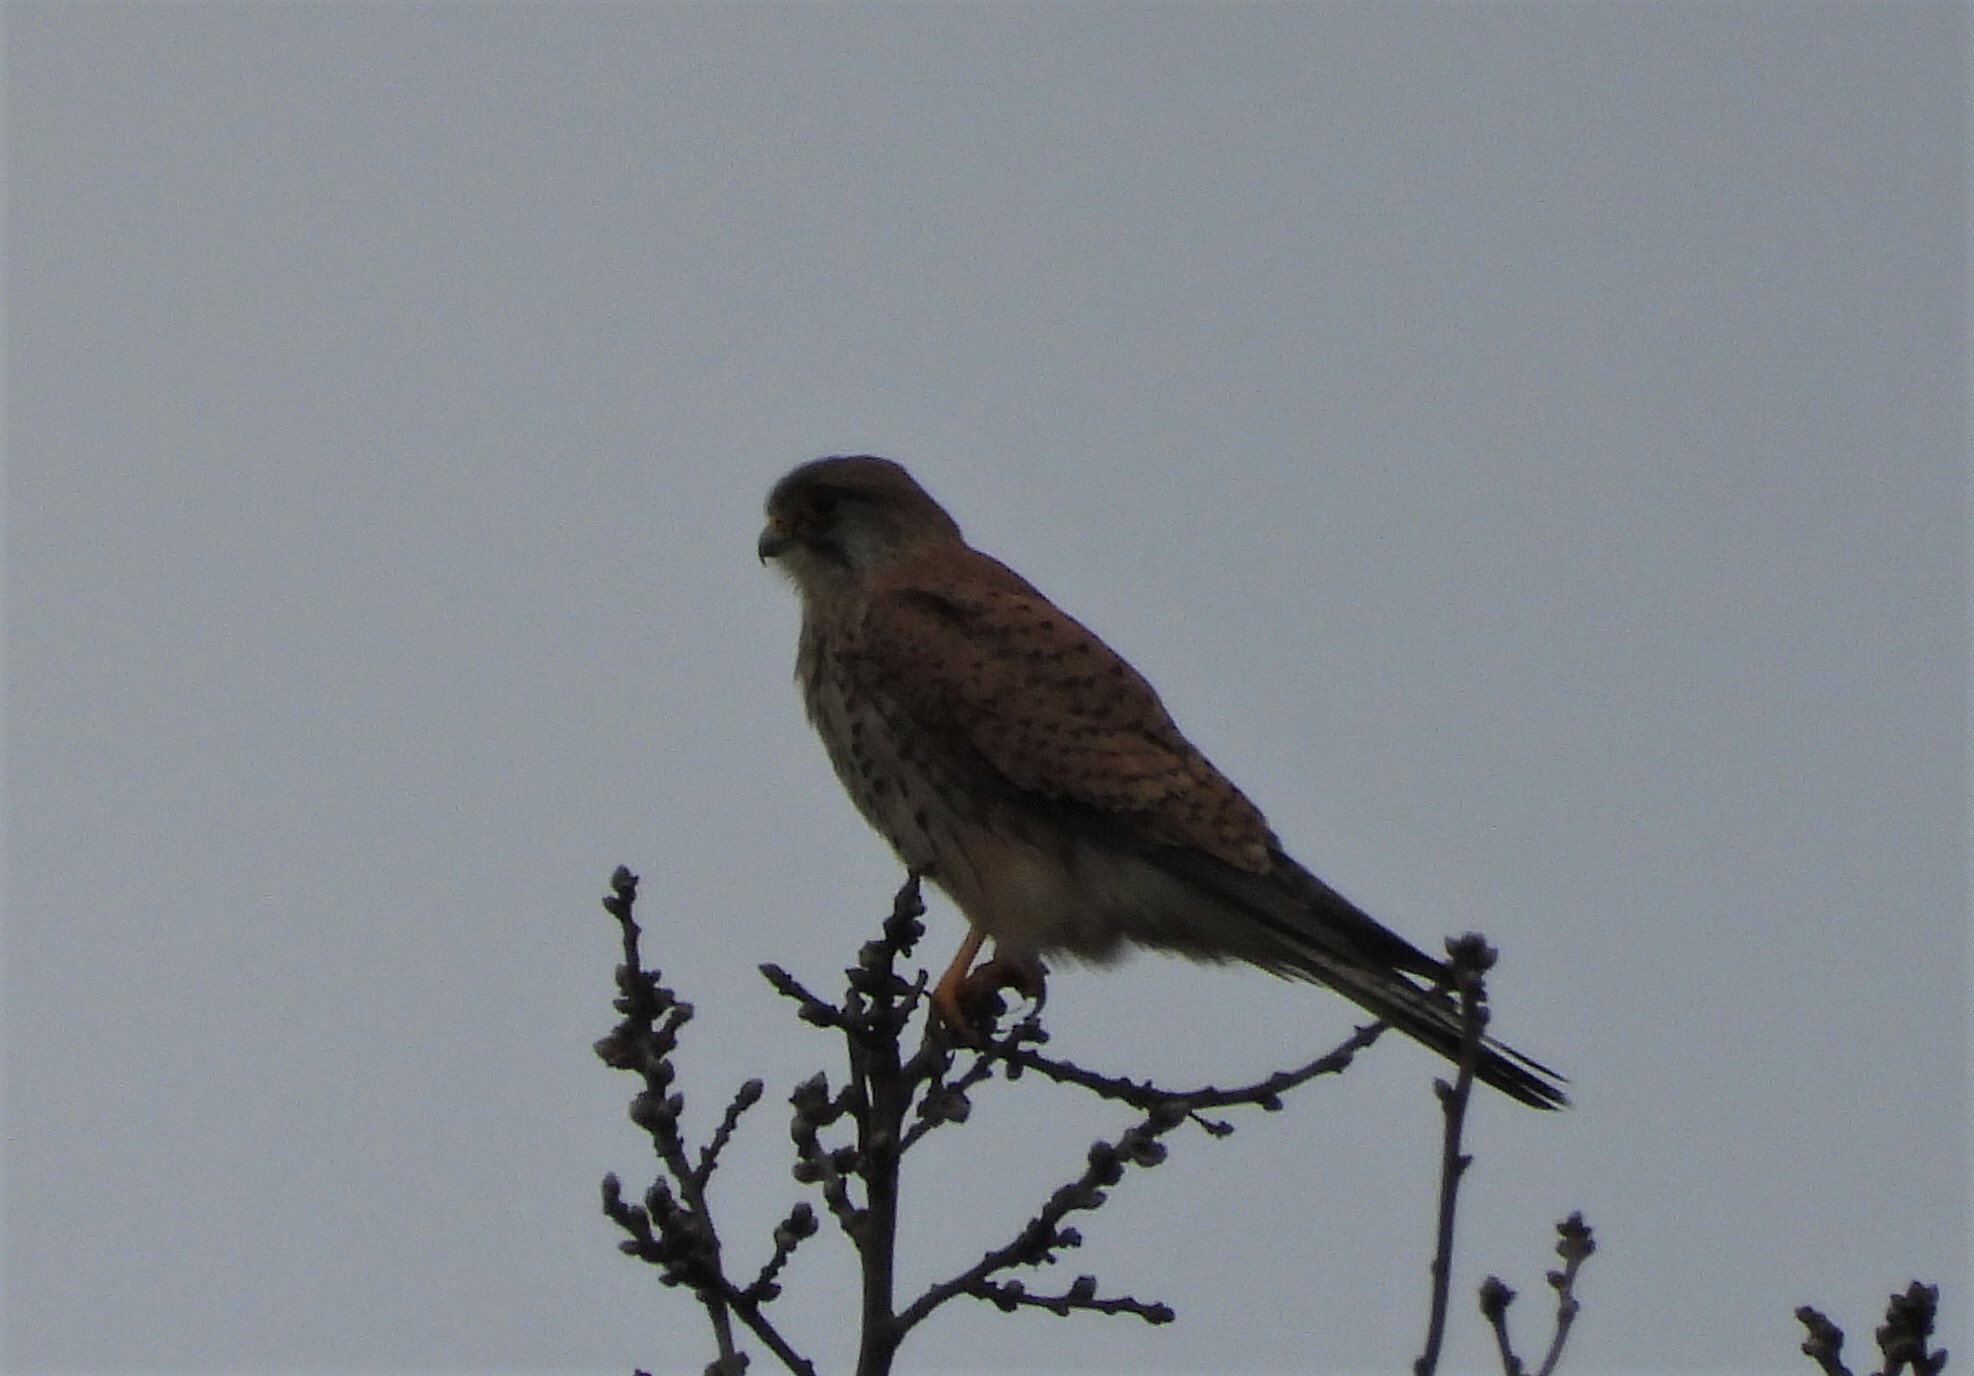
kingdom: Animalia
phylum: Chordata
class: Aves
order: Falconiformes
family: Falconidae
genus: Falco
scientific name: Falco tinnunculus
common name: Common kestrel
